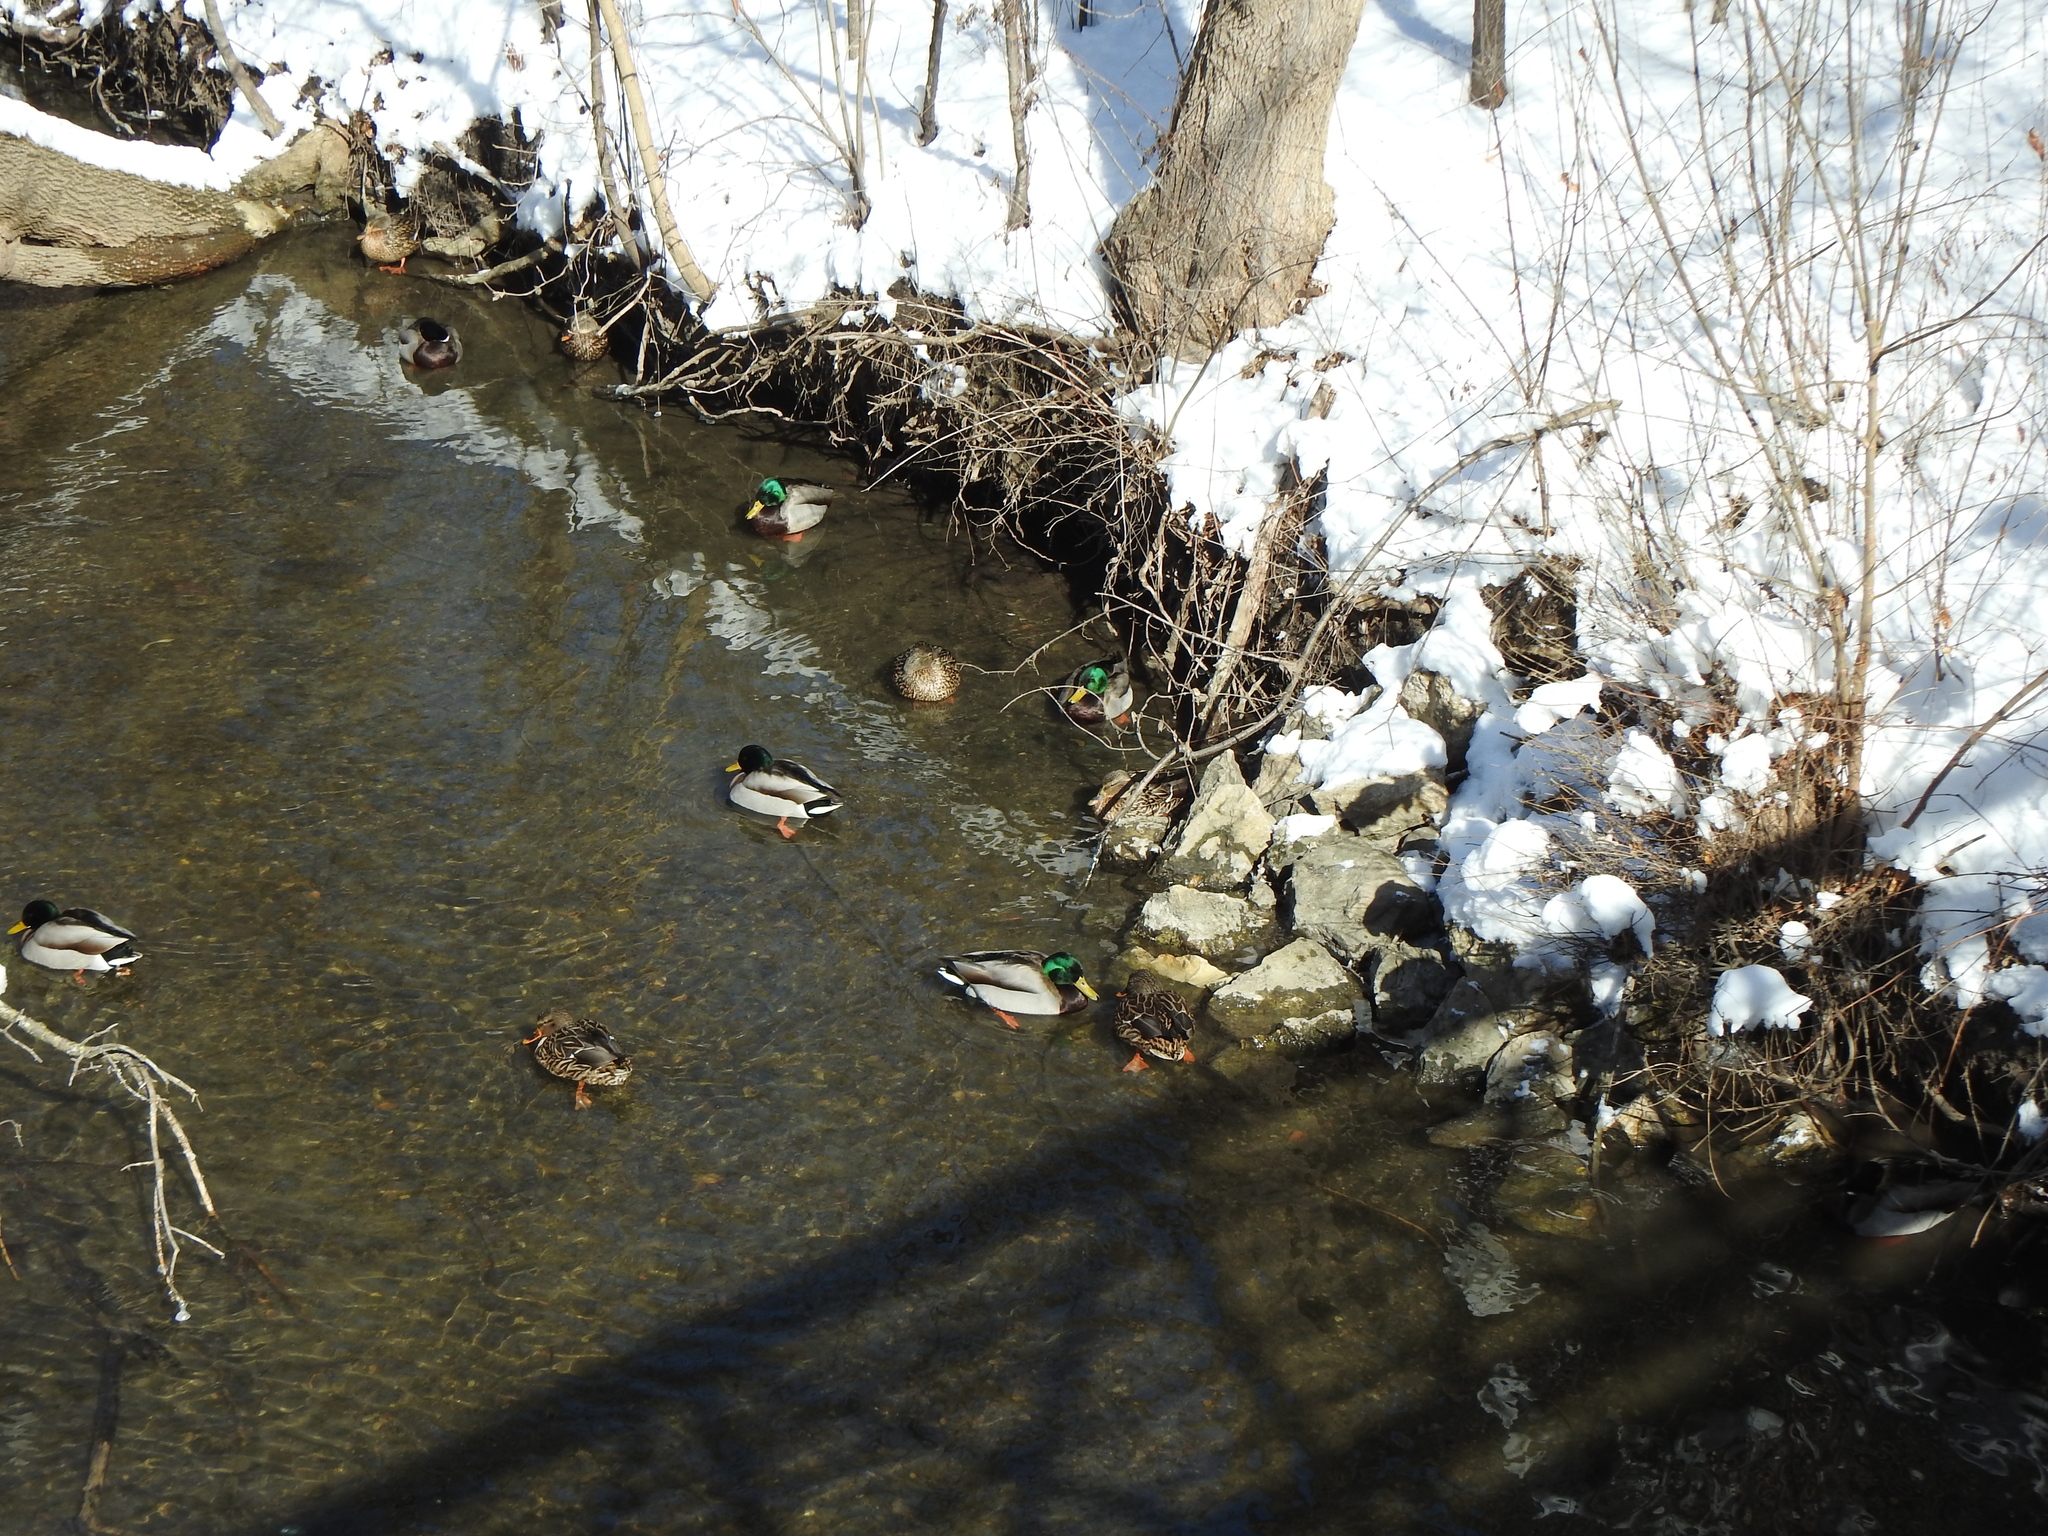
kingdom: Animalia
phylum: Chordata
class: Aves
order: Anseriformes
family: Anatidae
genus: Anas
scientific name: Anas platyrhynchos
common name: Mallard
